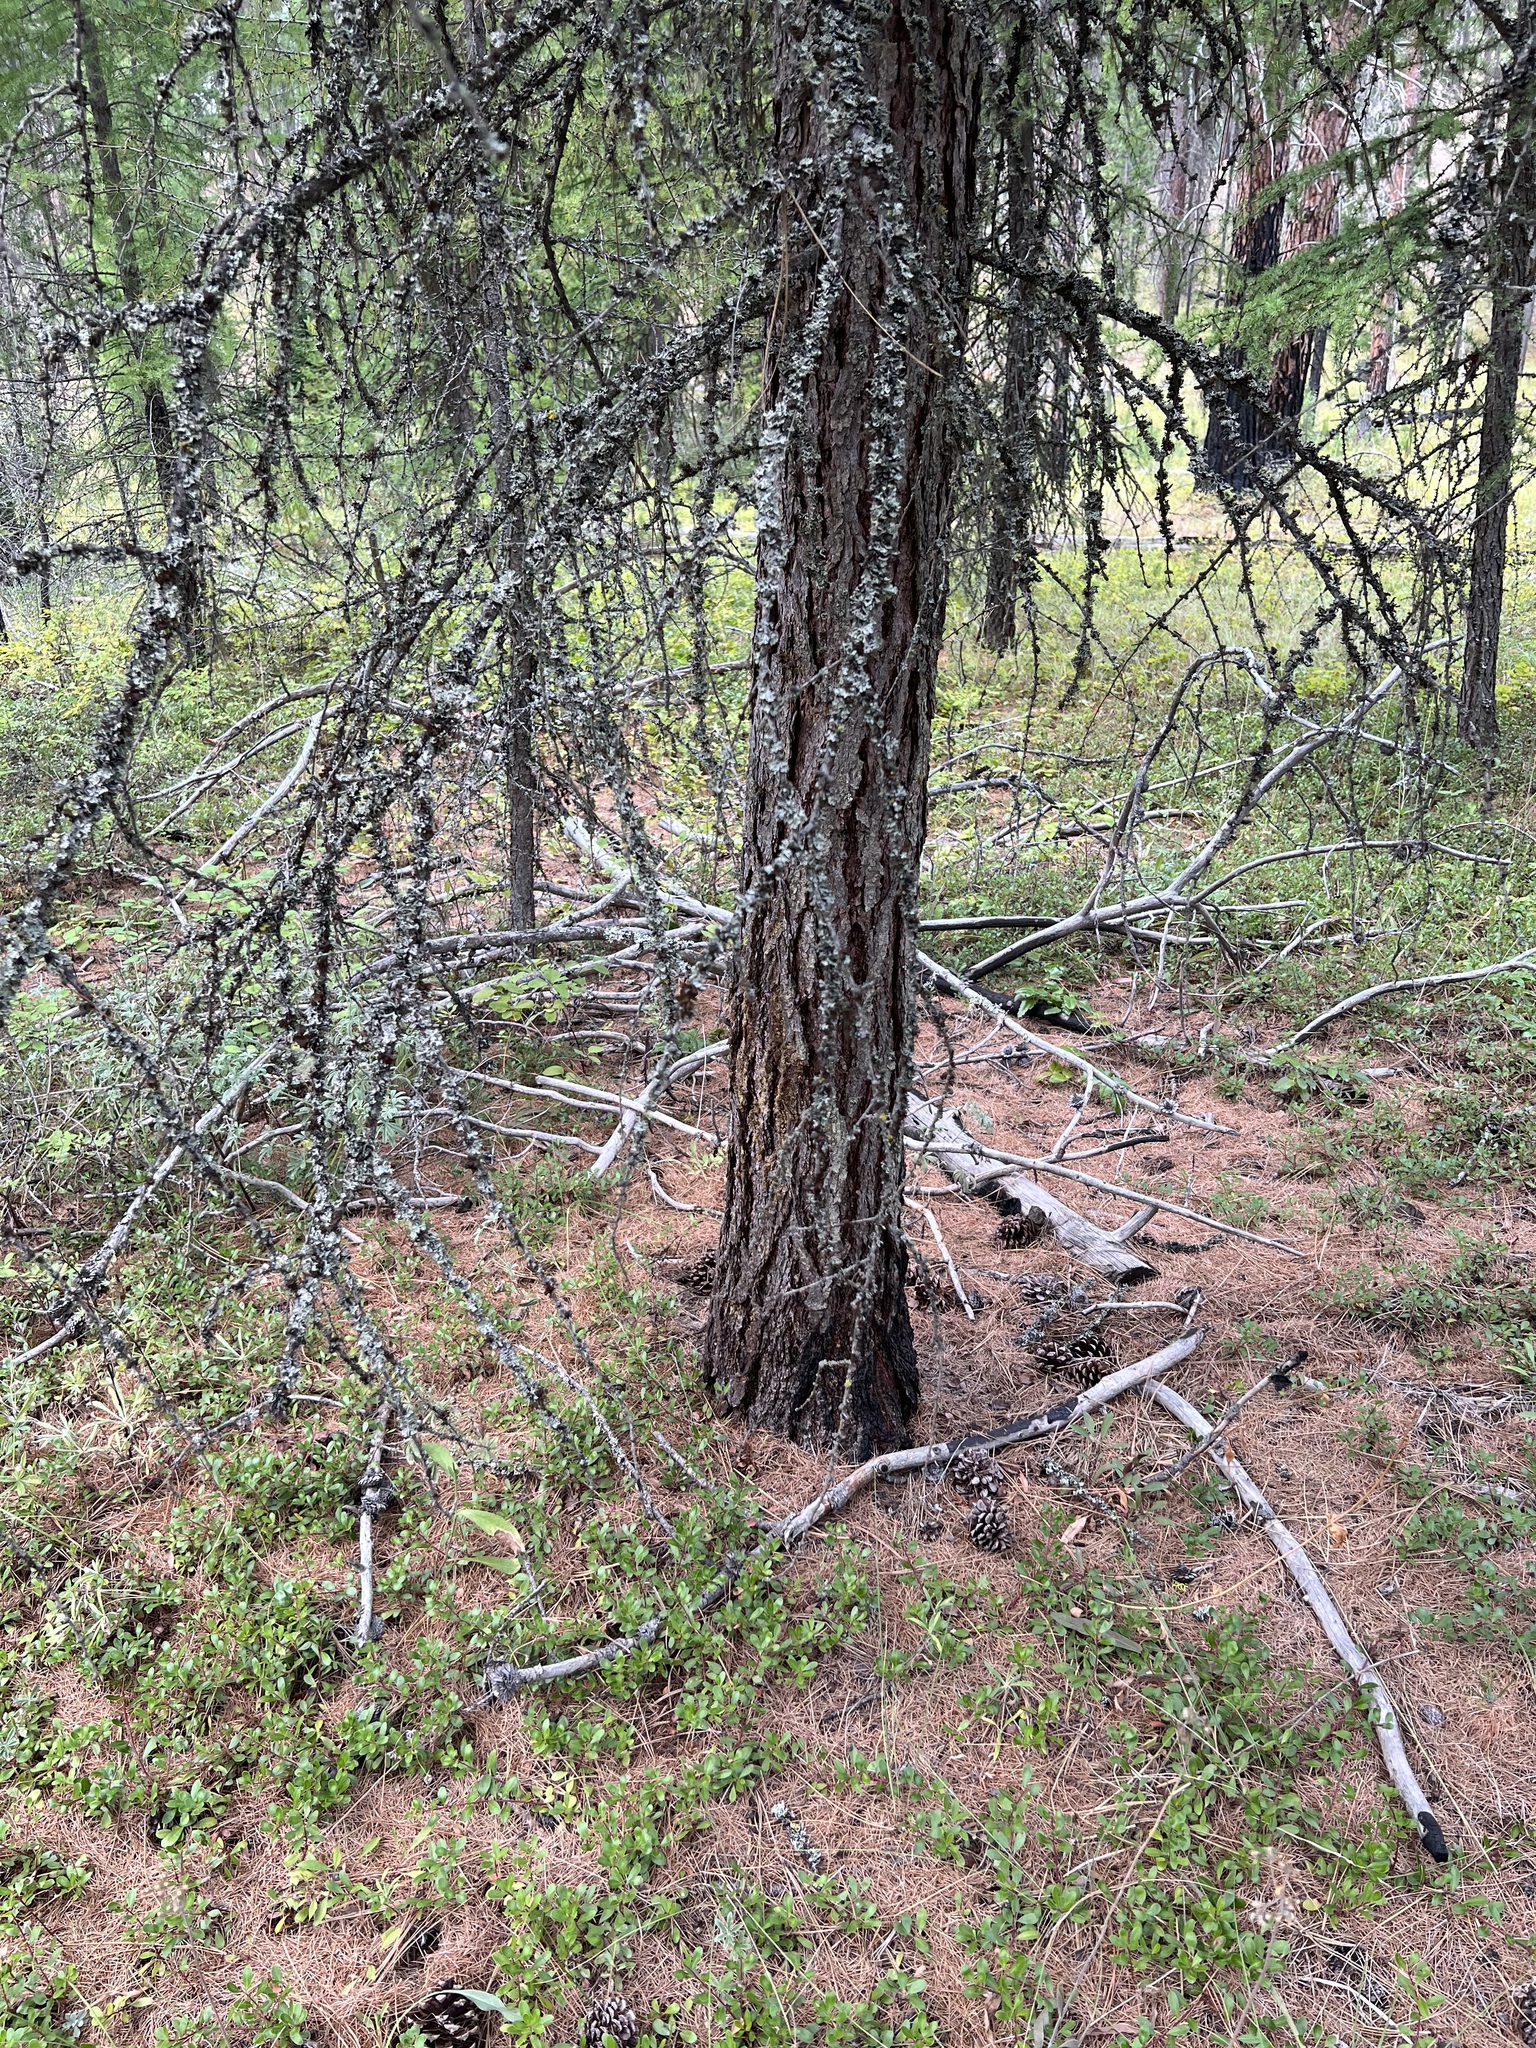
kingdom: Plantae
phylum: Tracheophyta
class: Pinopsida
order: Pinales
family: Pinaceae
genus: Larix
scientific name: Larix occidentalis
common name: Western larch
